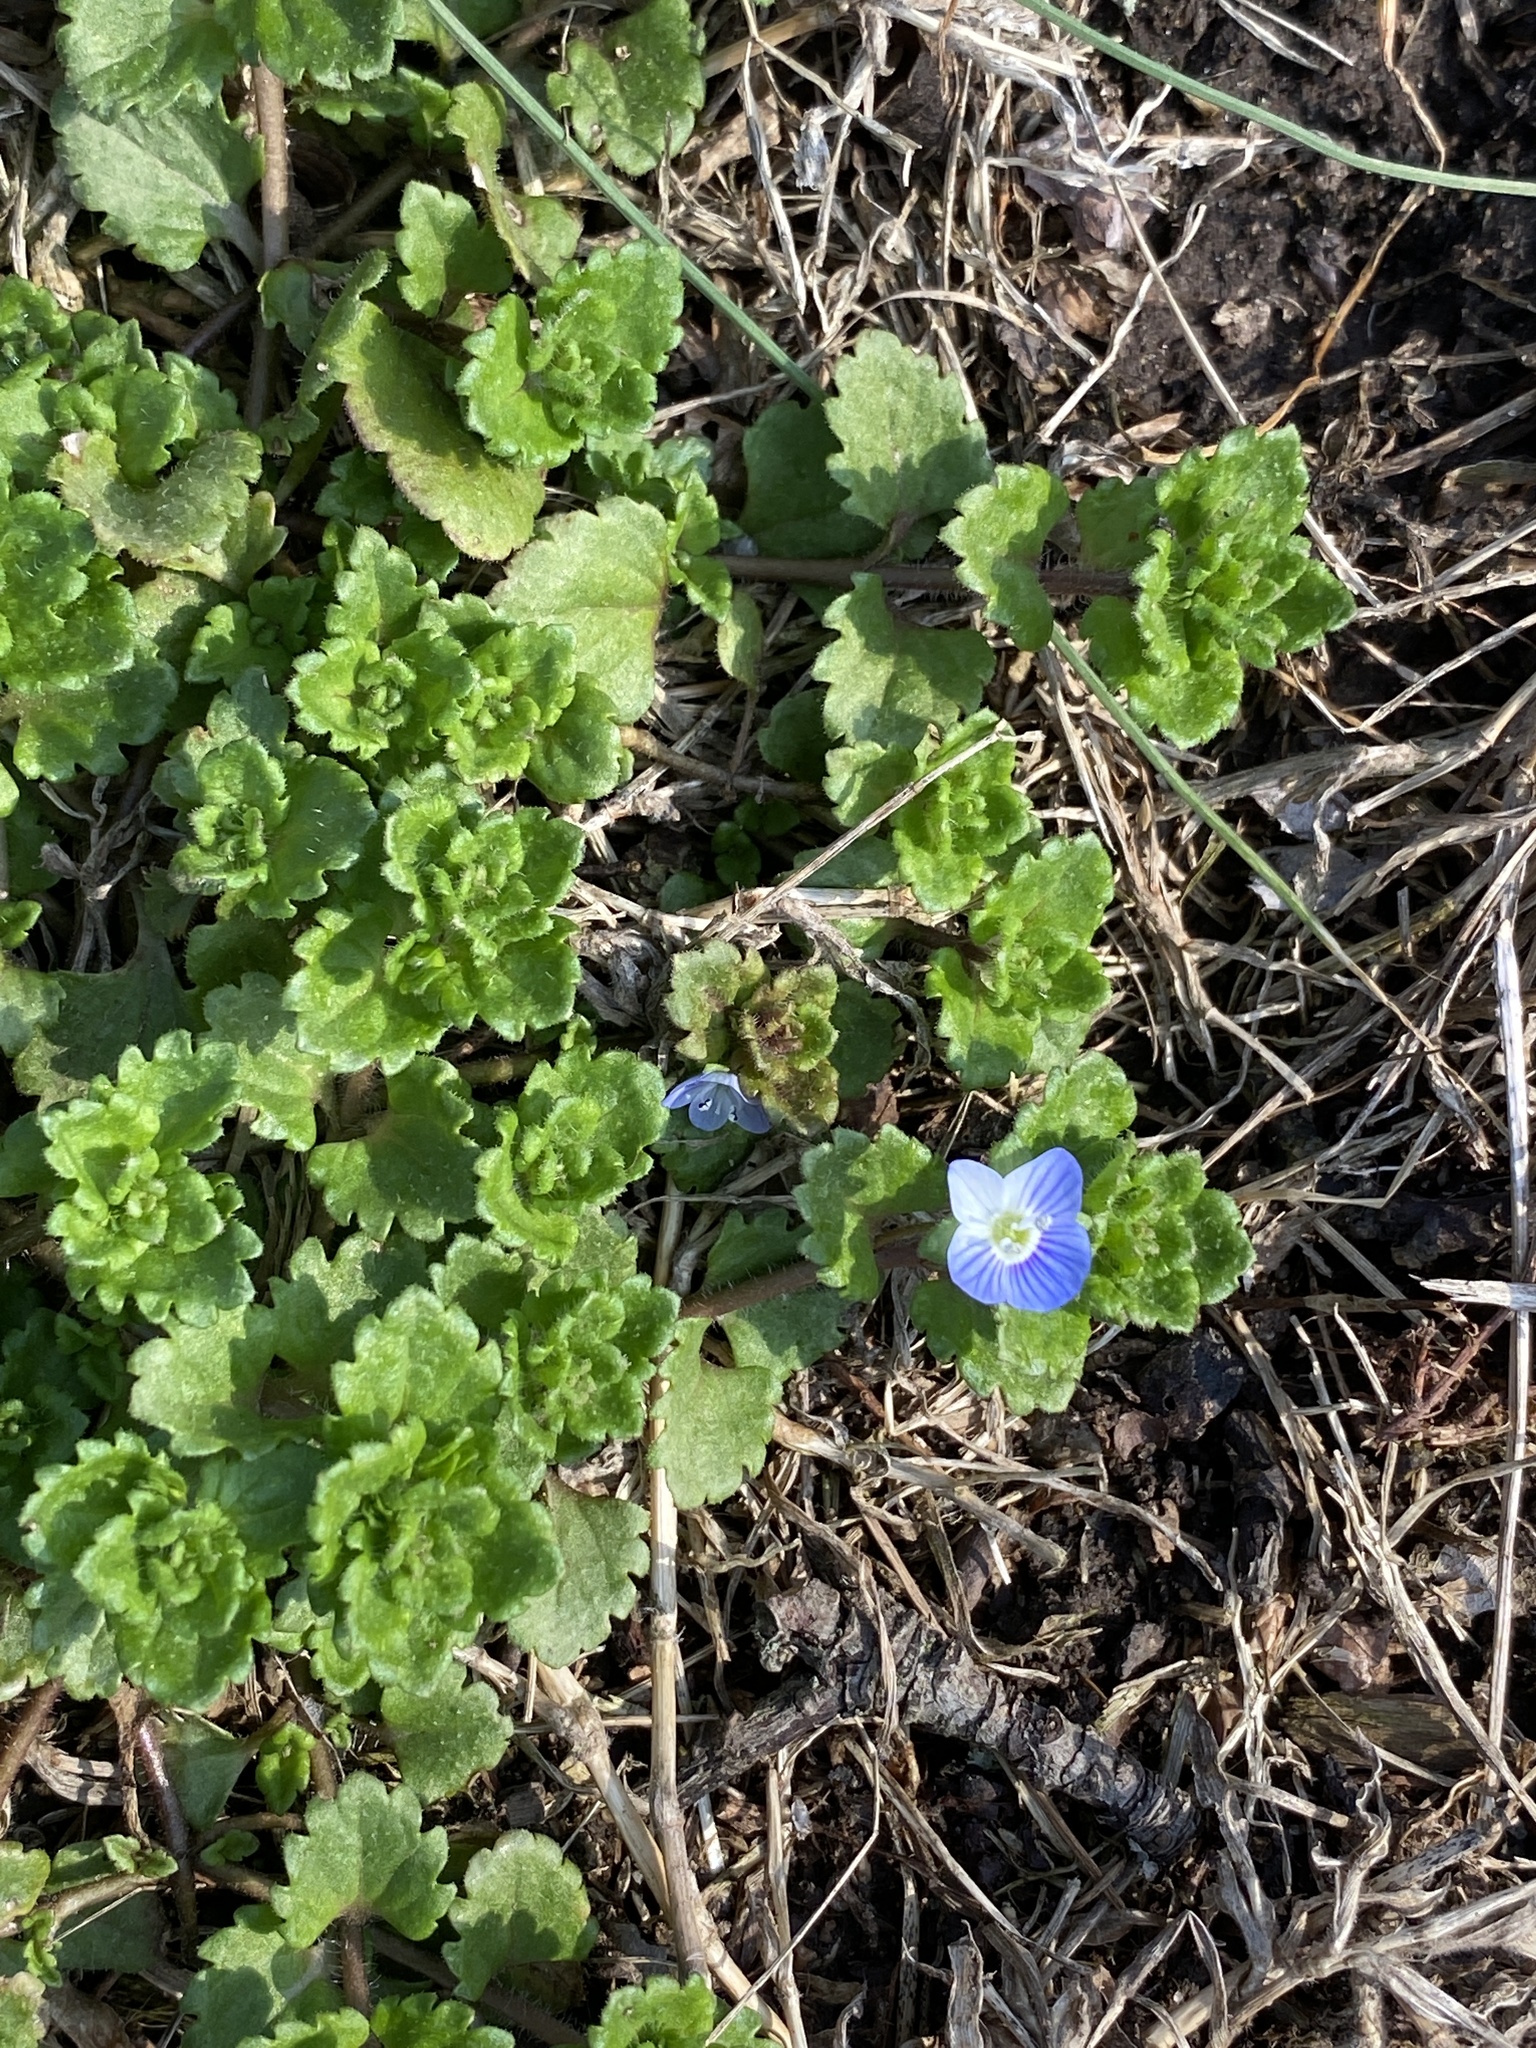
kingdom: Plantae
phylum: Tracheophyta
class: Magnoliopsida
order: Lamiales
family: Plantaginaceae
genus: Veronica
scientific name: Veronica persica
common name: Common field-speedwell
